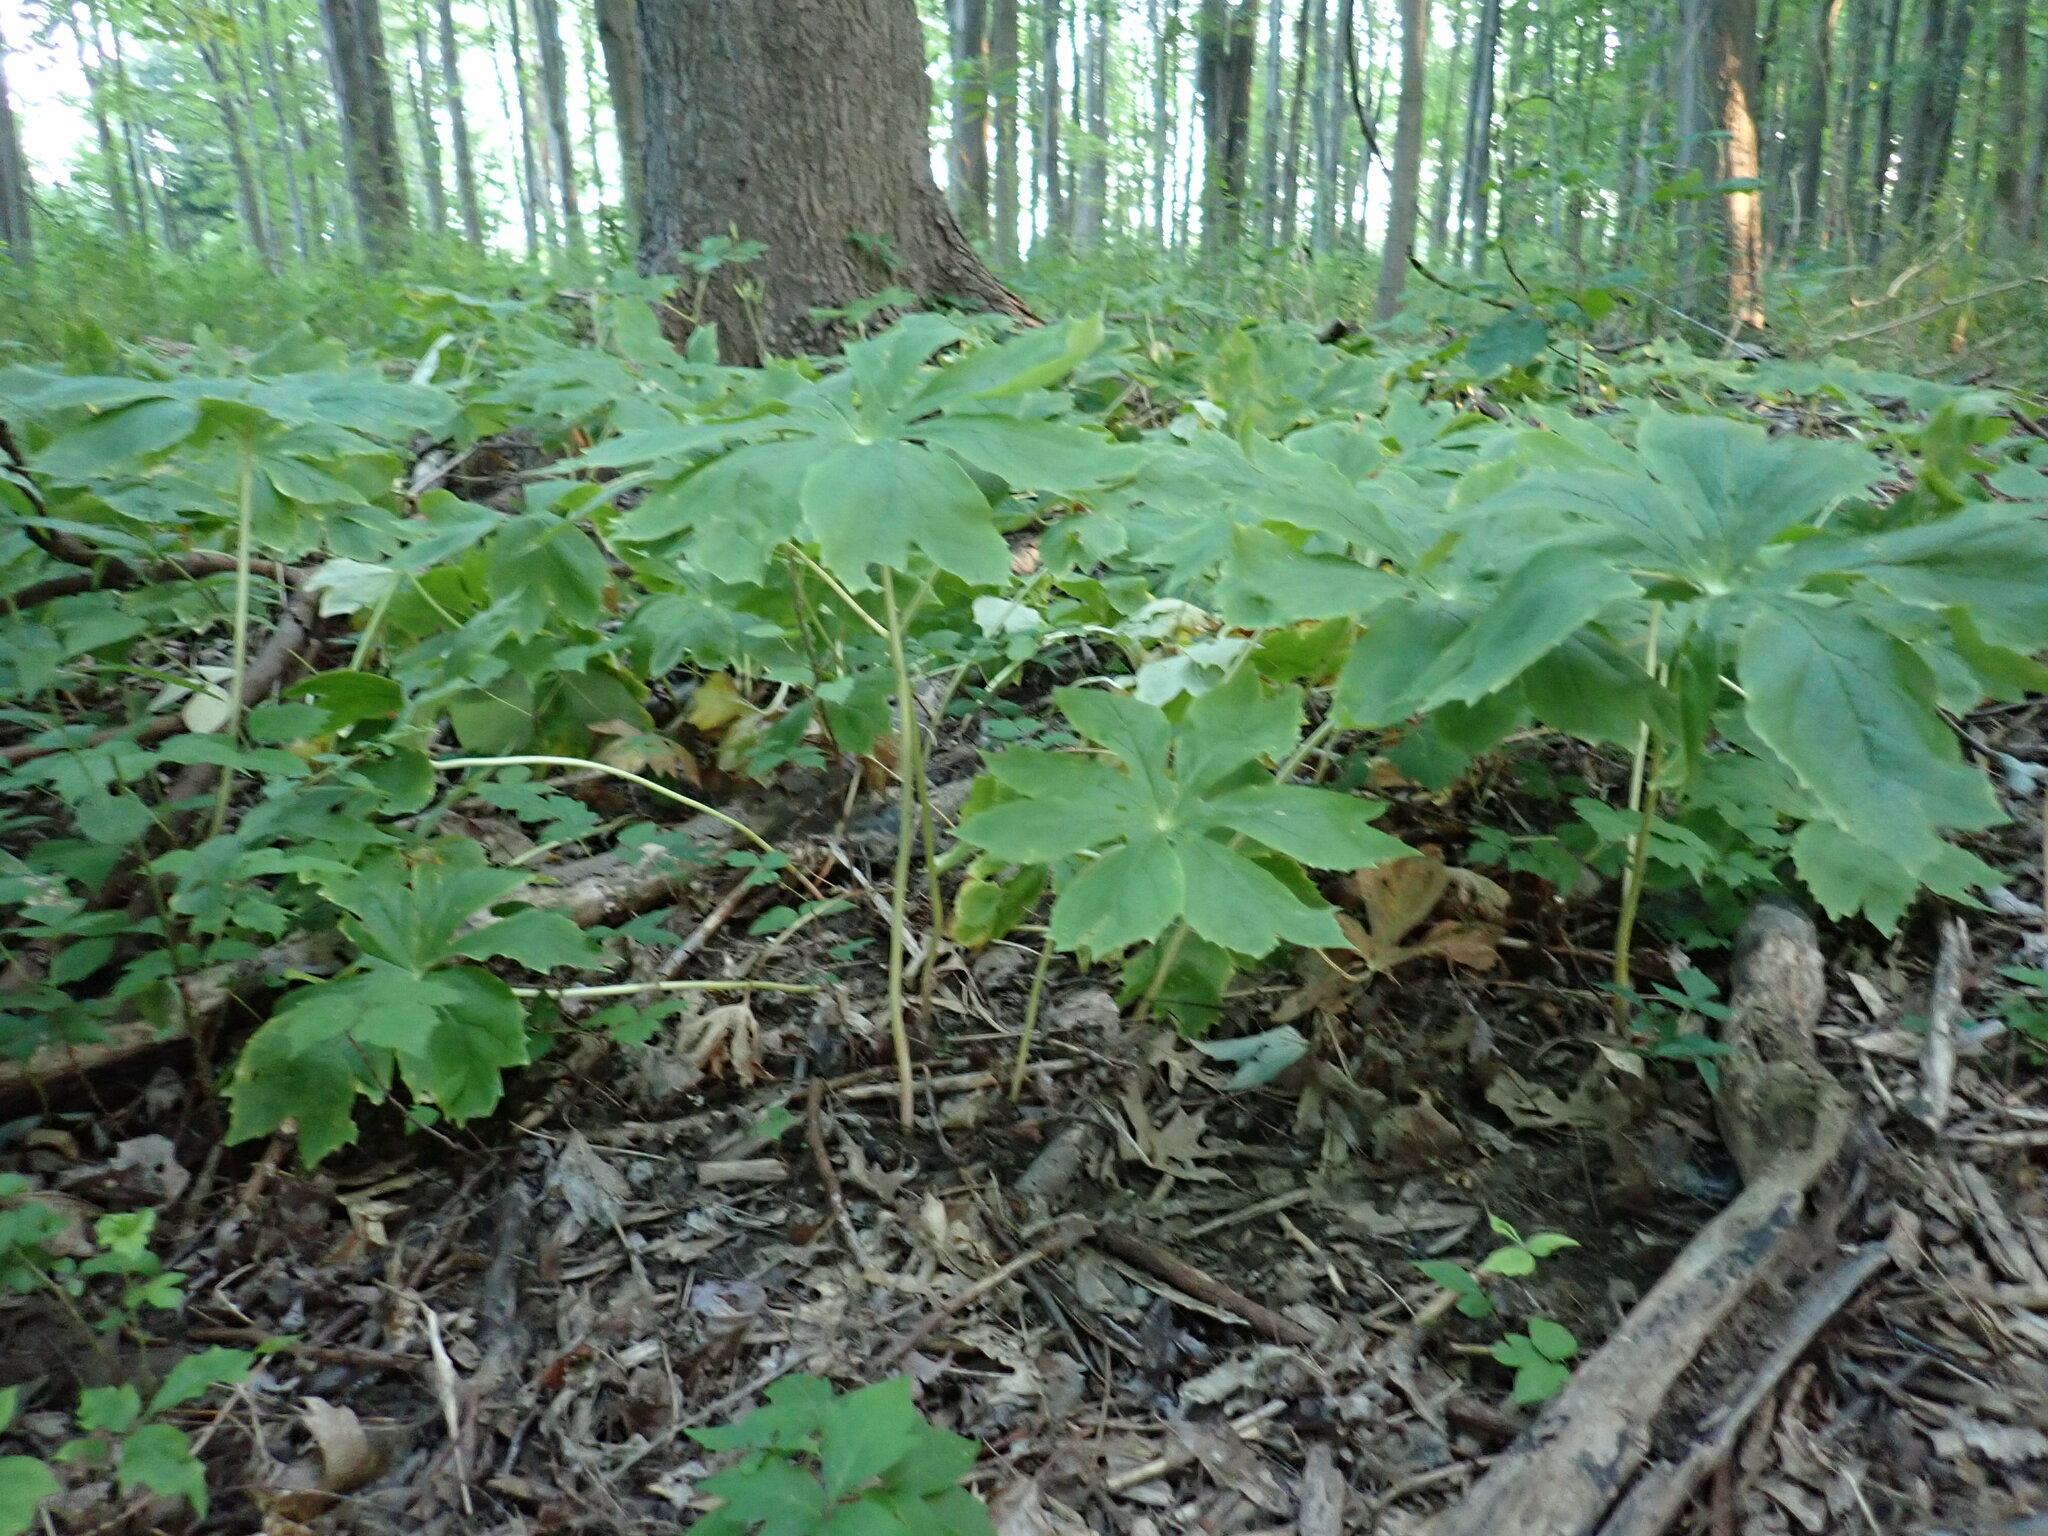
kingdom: Plantae
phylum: Tracheophyta
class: Magnoliopsida
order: Ranunculales
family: Berberidaceae
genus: Podophyllum
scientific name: Podophyllum peltatum
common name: Wild mandrake
